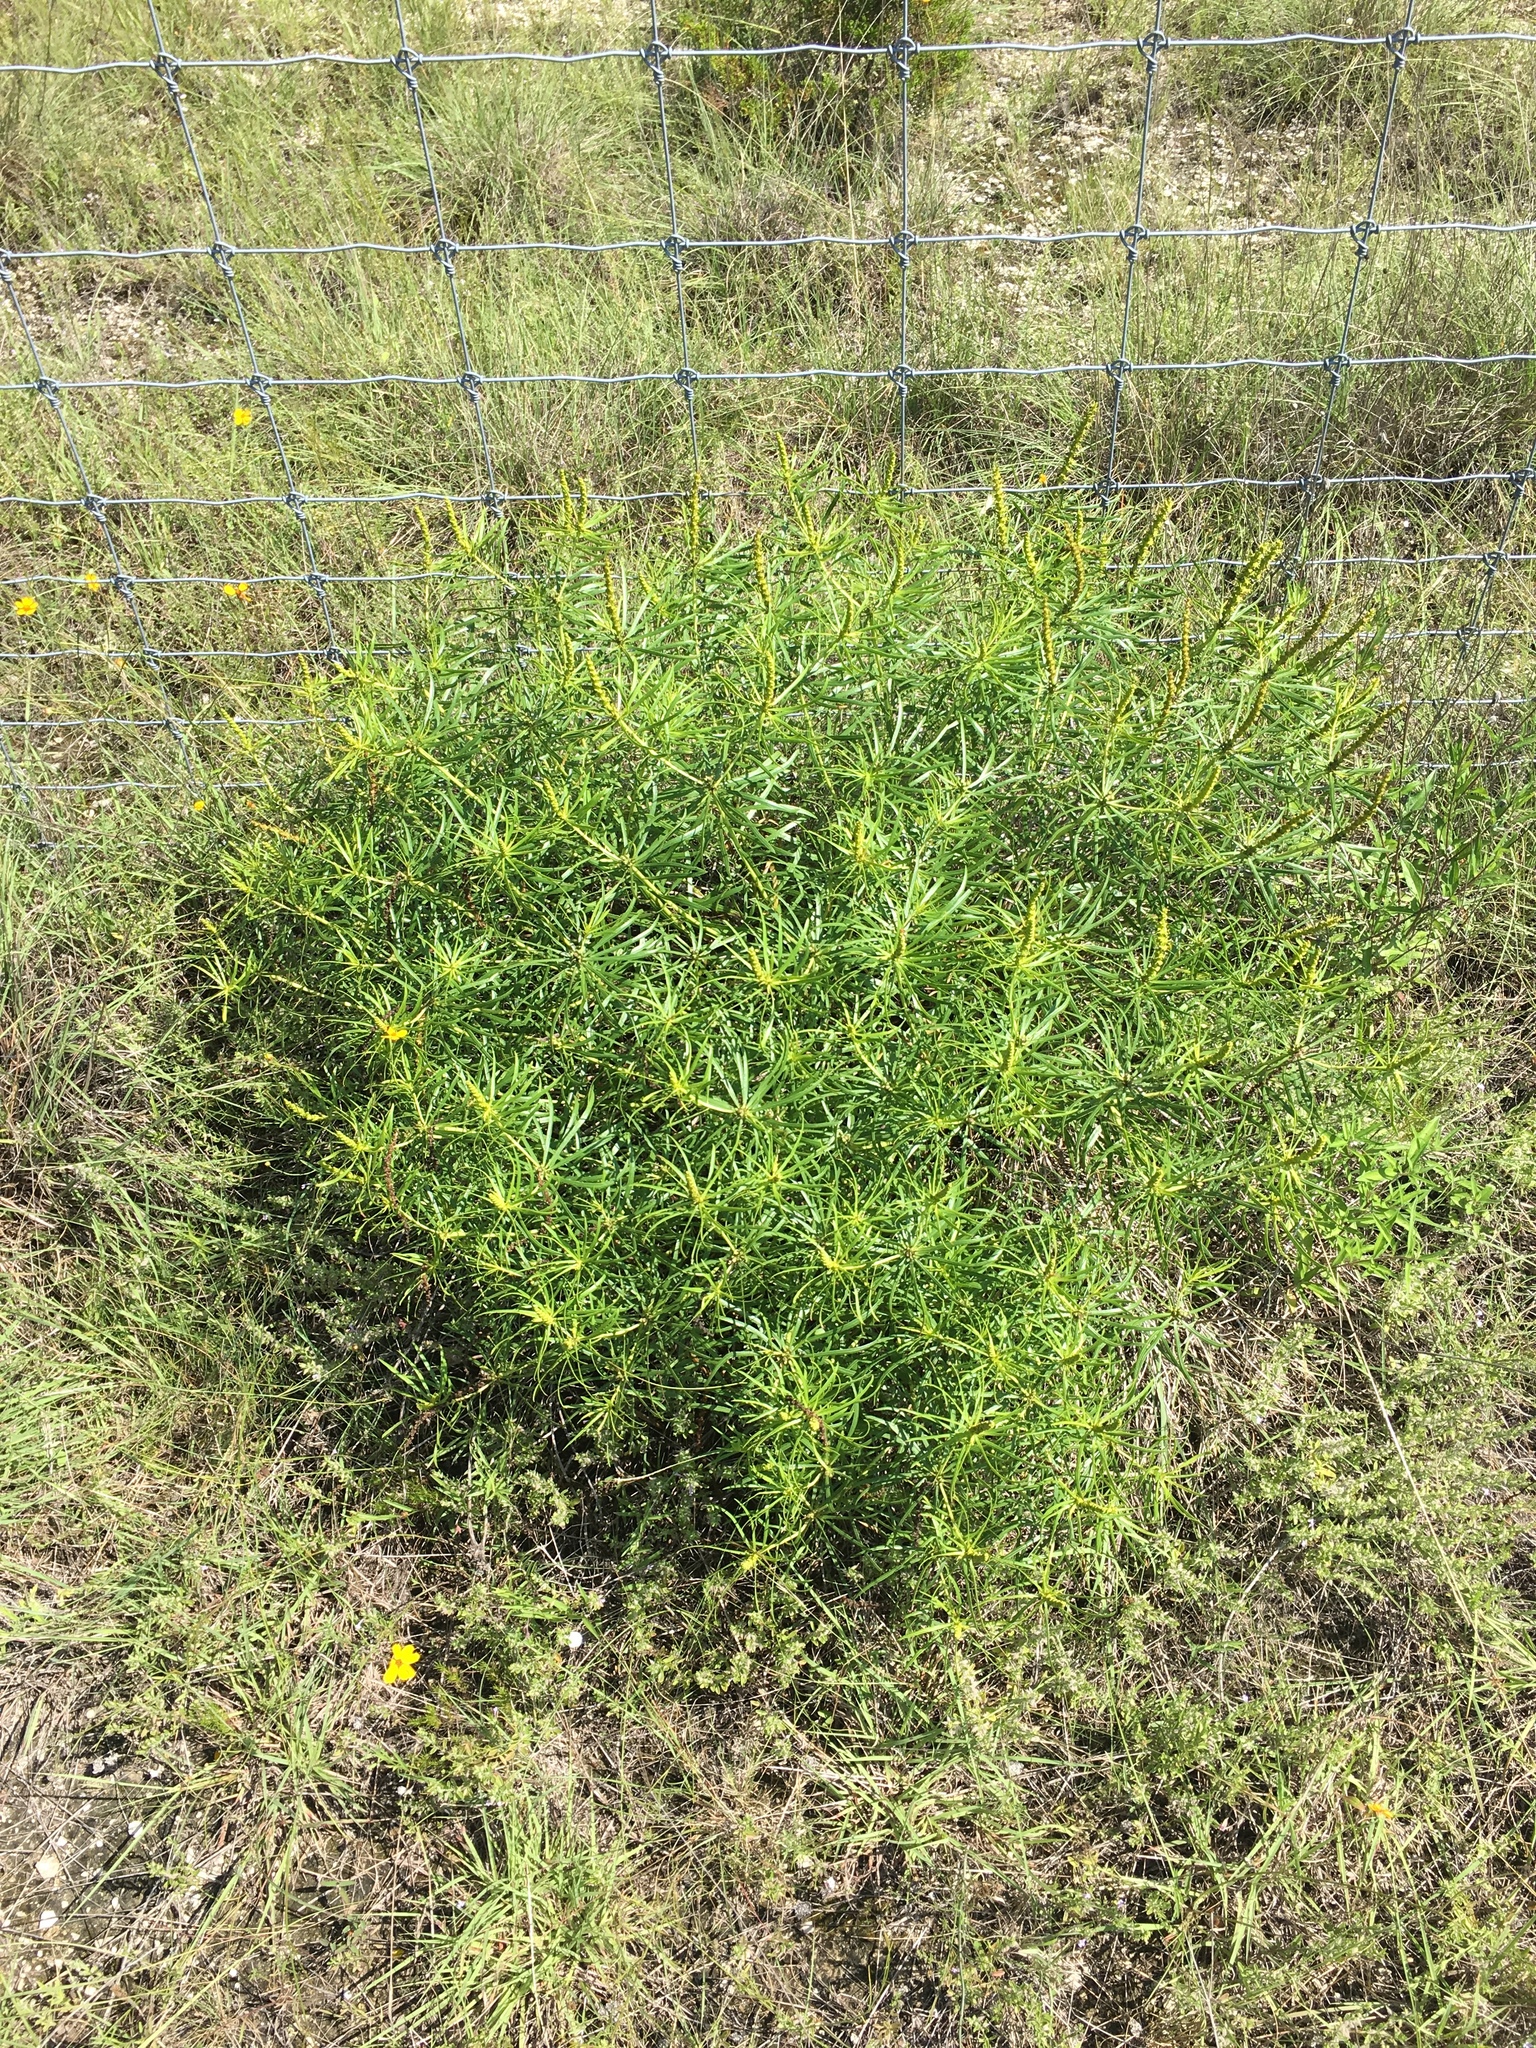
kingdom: Plantae
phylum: Tracheophyta
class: Magnoliopsida
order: Malpighiales
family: Euphorbiaceae
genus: Stillingia
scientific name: Stillingia texana
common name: Texas stillingia
